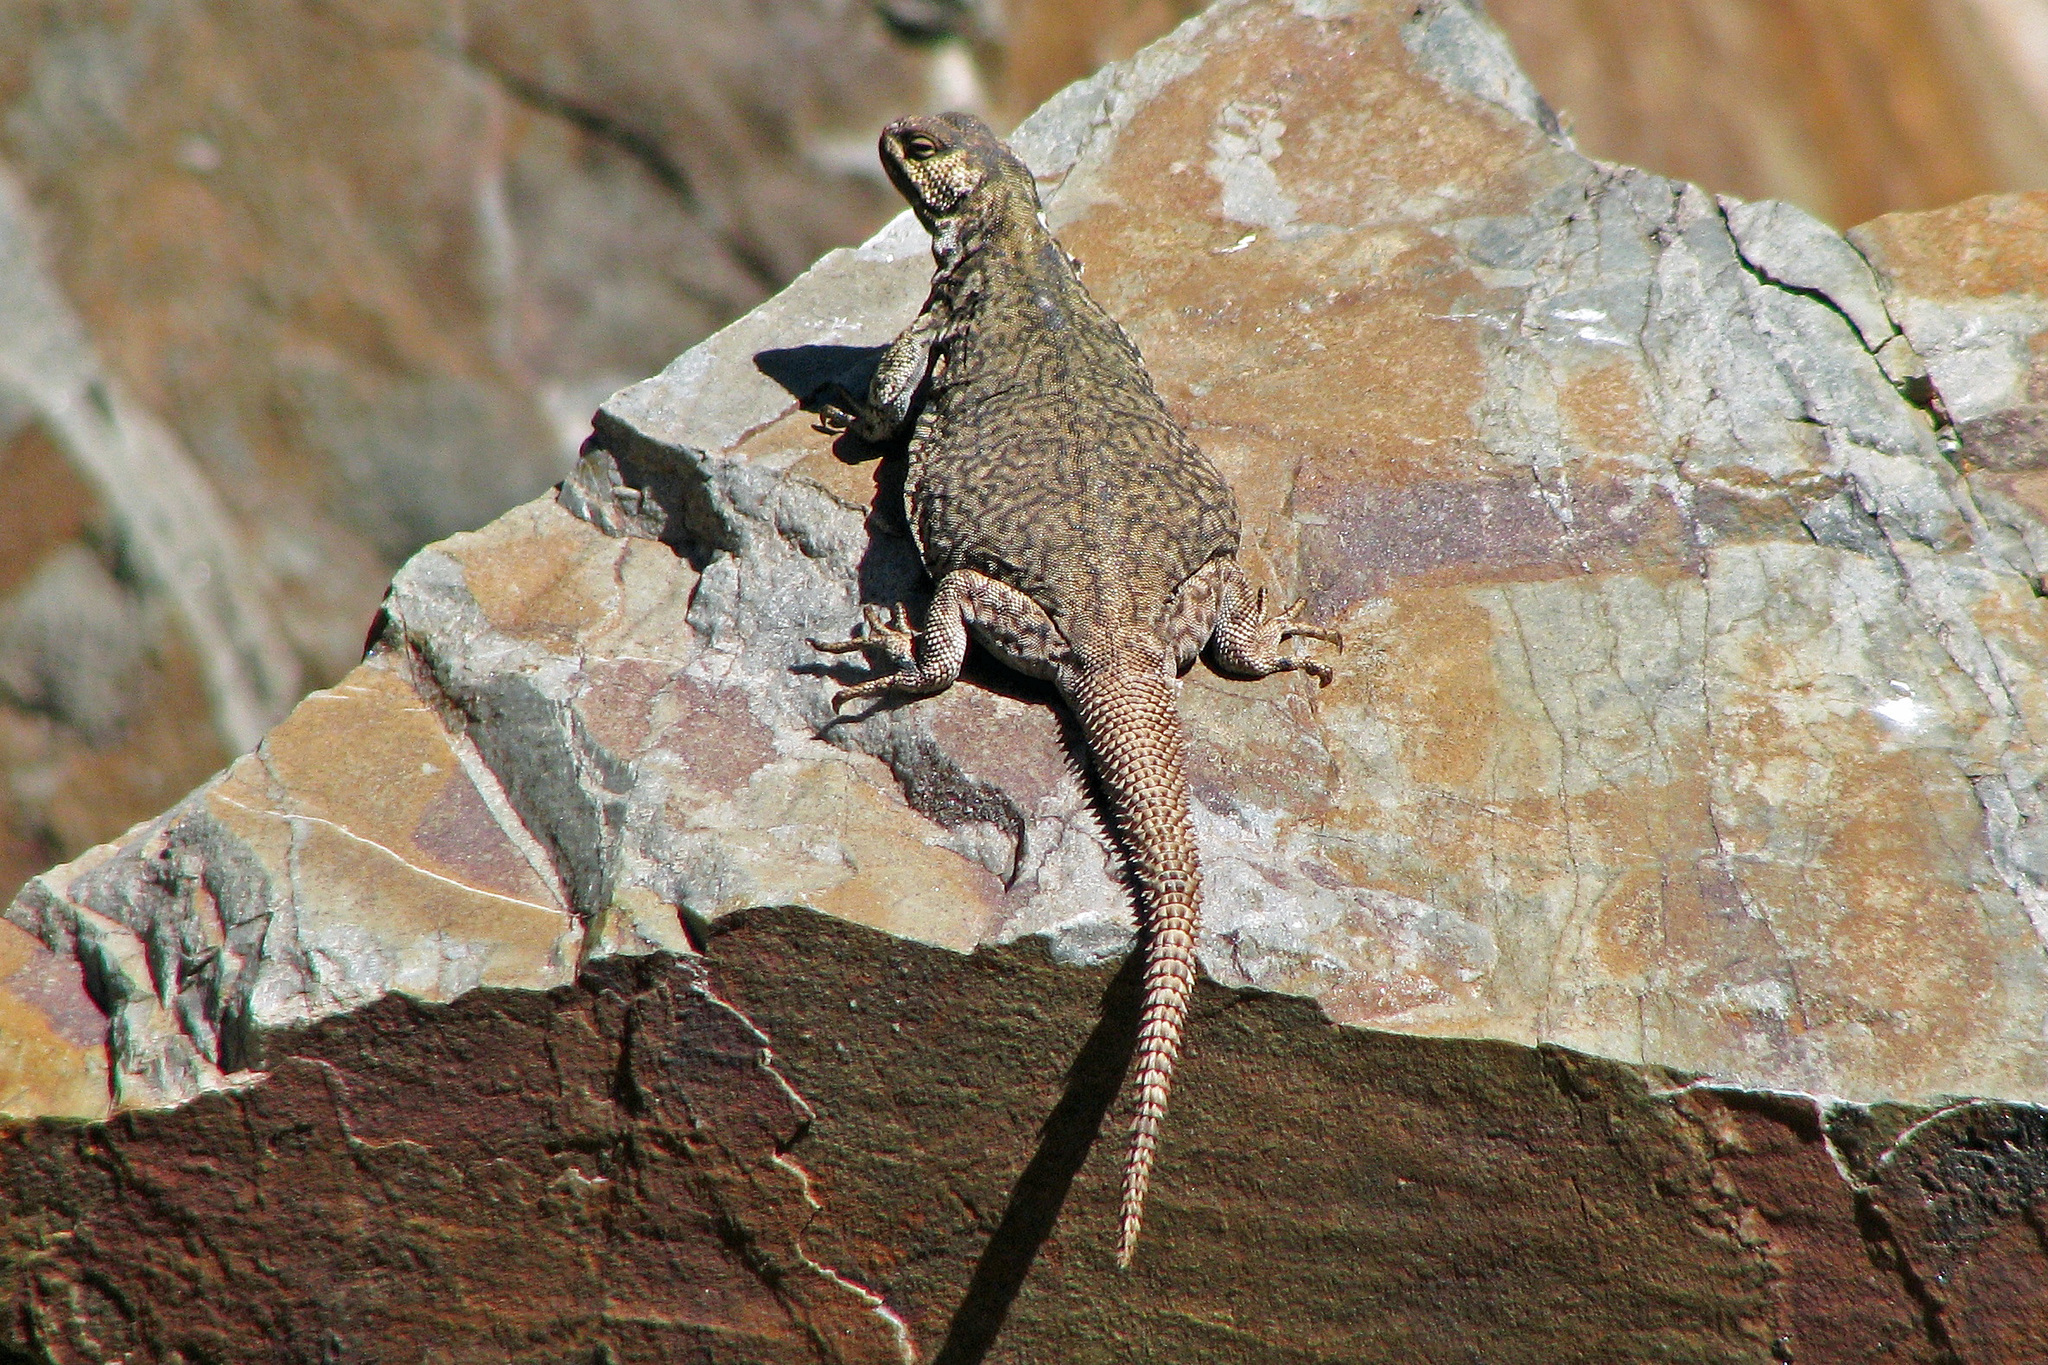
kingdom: Animalia
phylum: Chordata
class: Squamata
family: Liolaemidae
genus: Phymaturus
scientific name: Phymaturus palluma
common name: High mountain lizard
